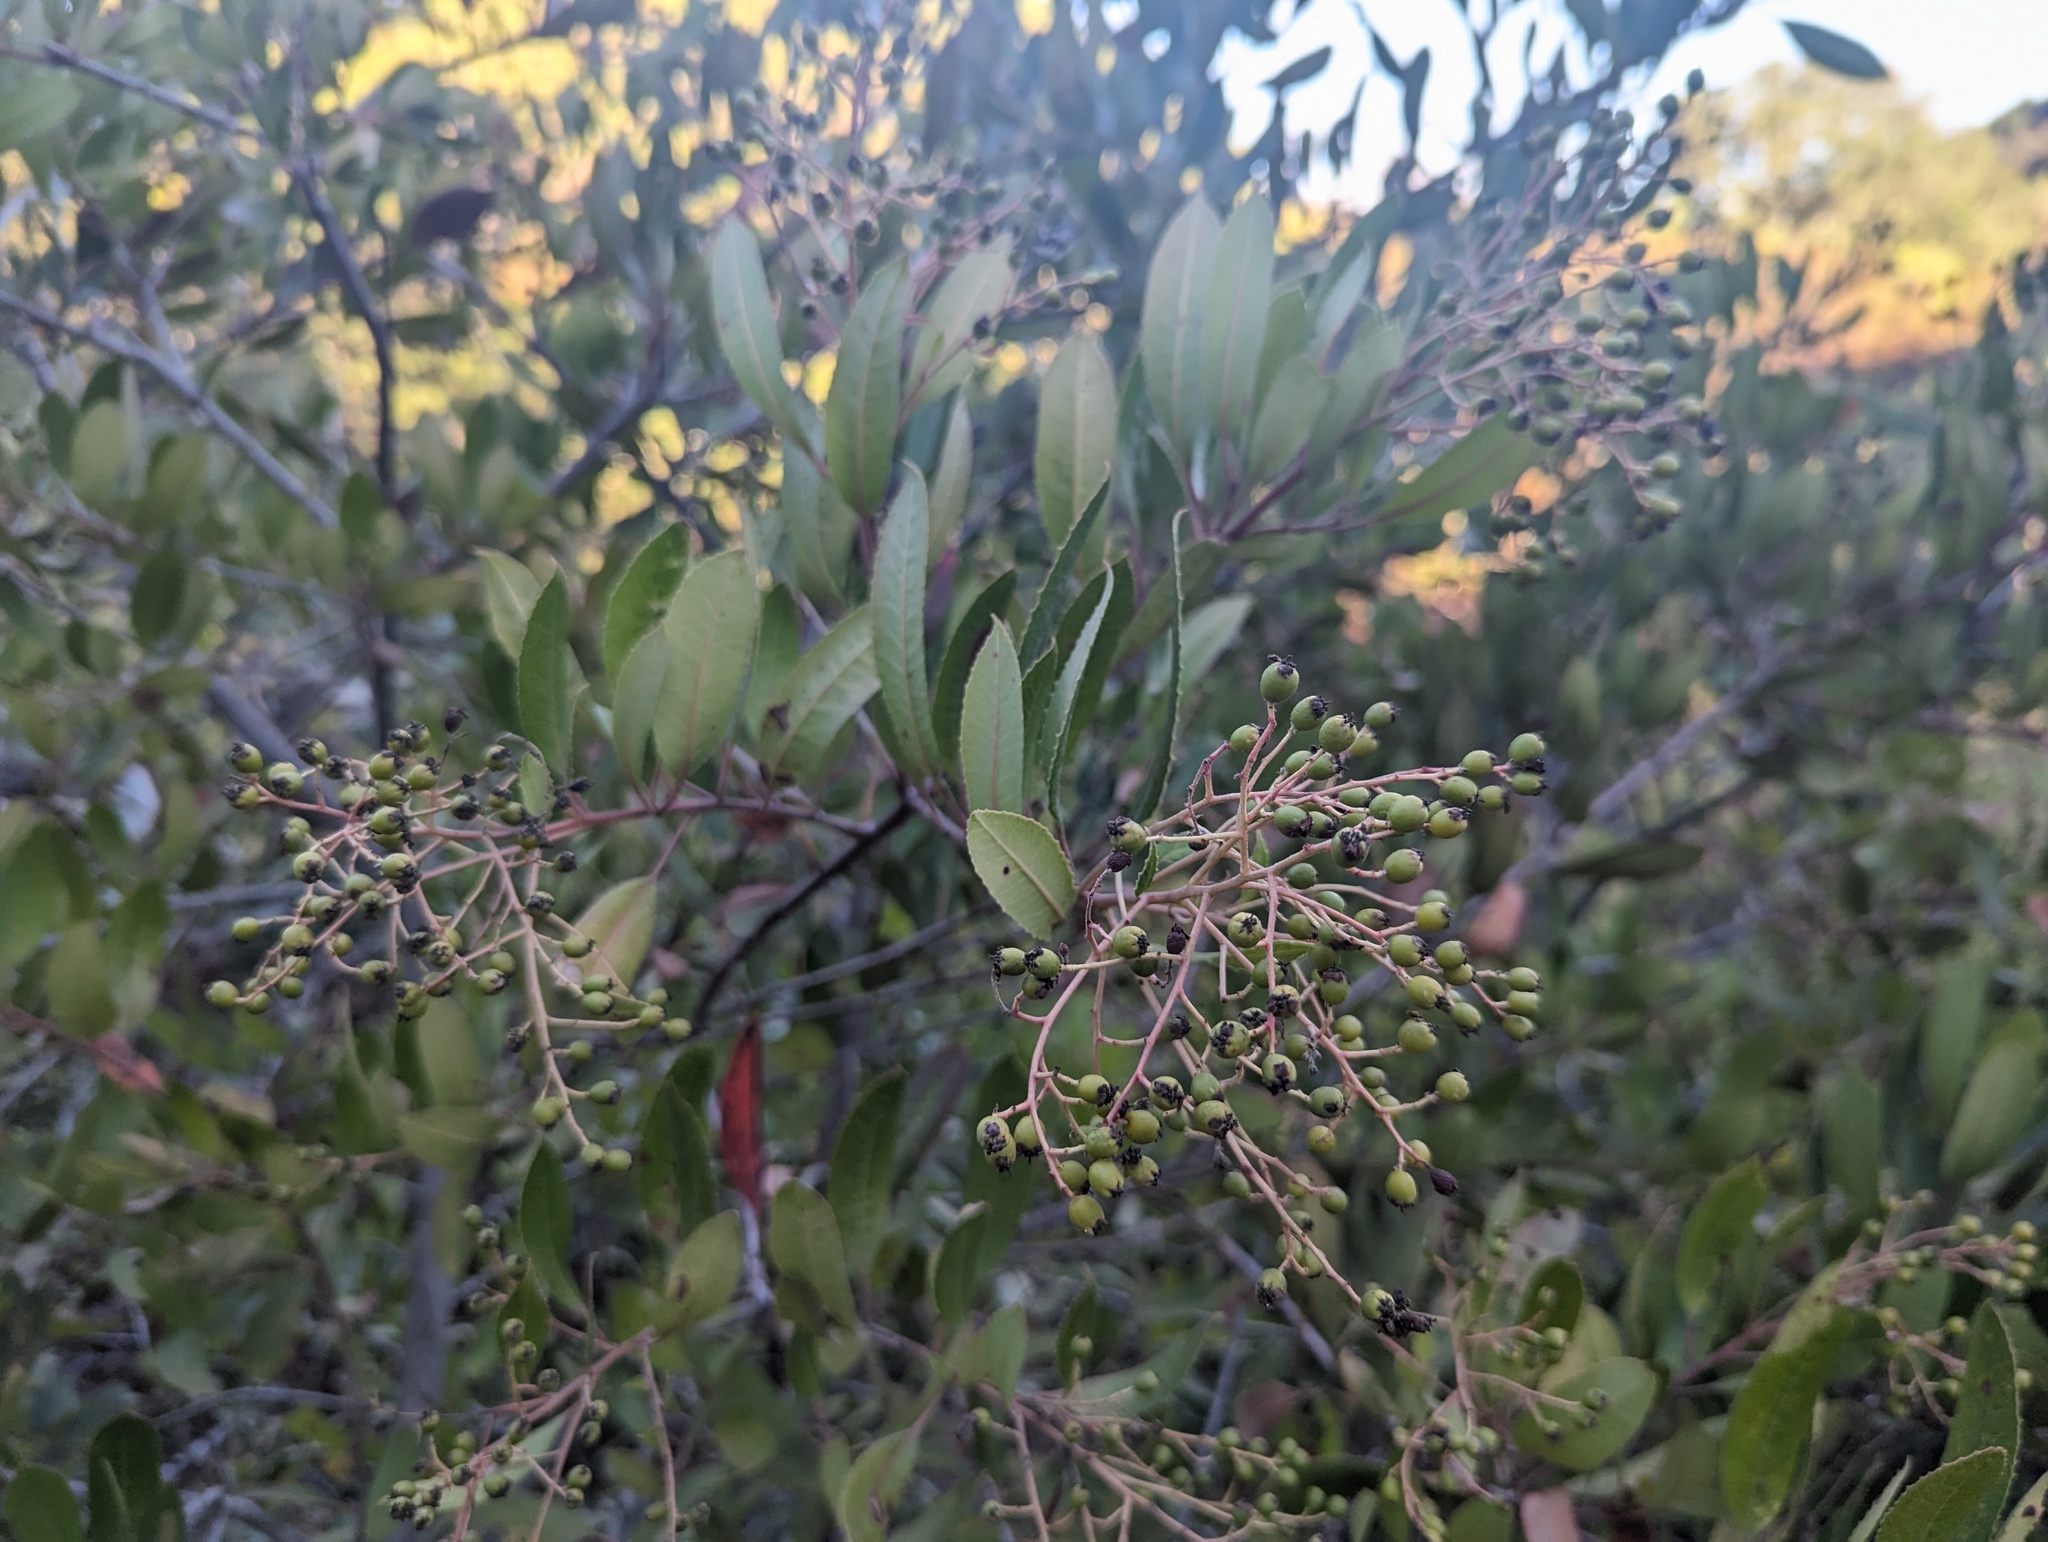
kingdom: Plantae
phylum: Tracheophyta
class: Magnoliopsida
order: Rosales
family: Rosaceae
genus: Heteromeles
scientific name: Heteromeles arbutifolia
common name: California-holly
